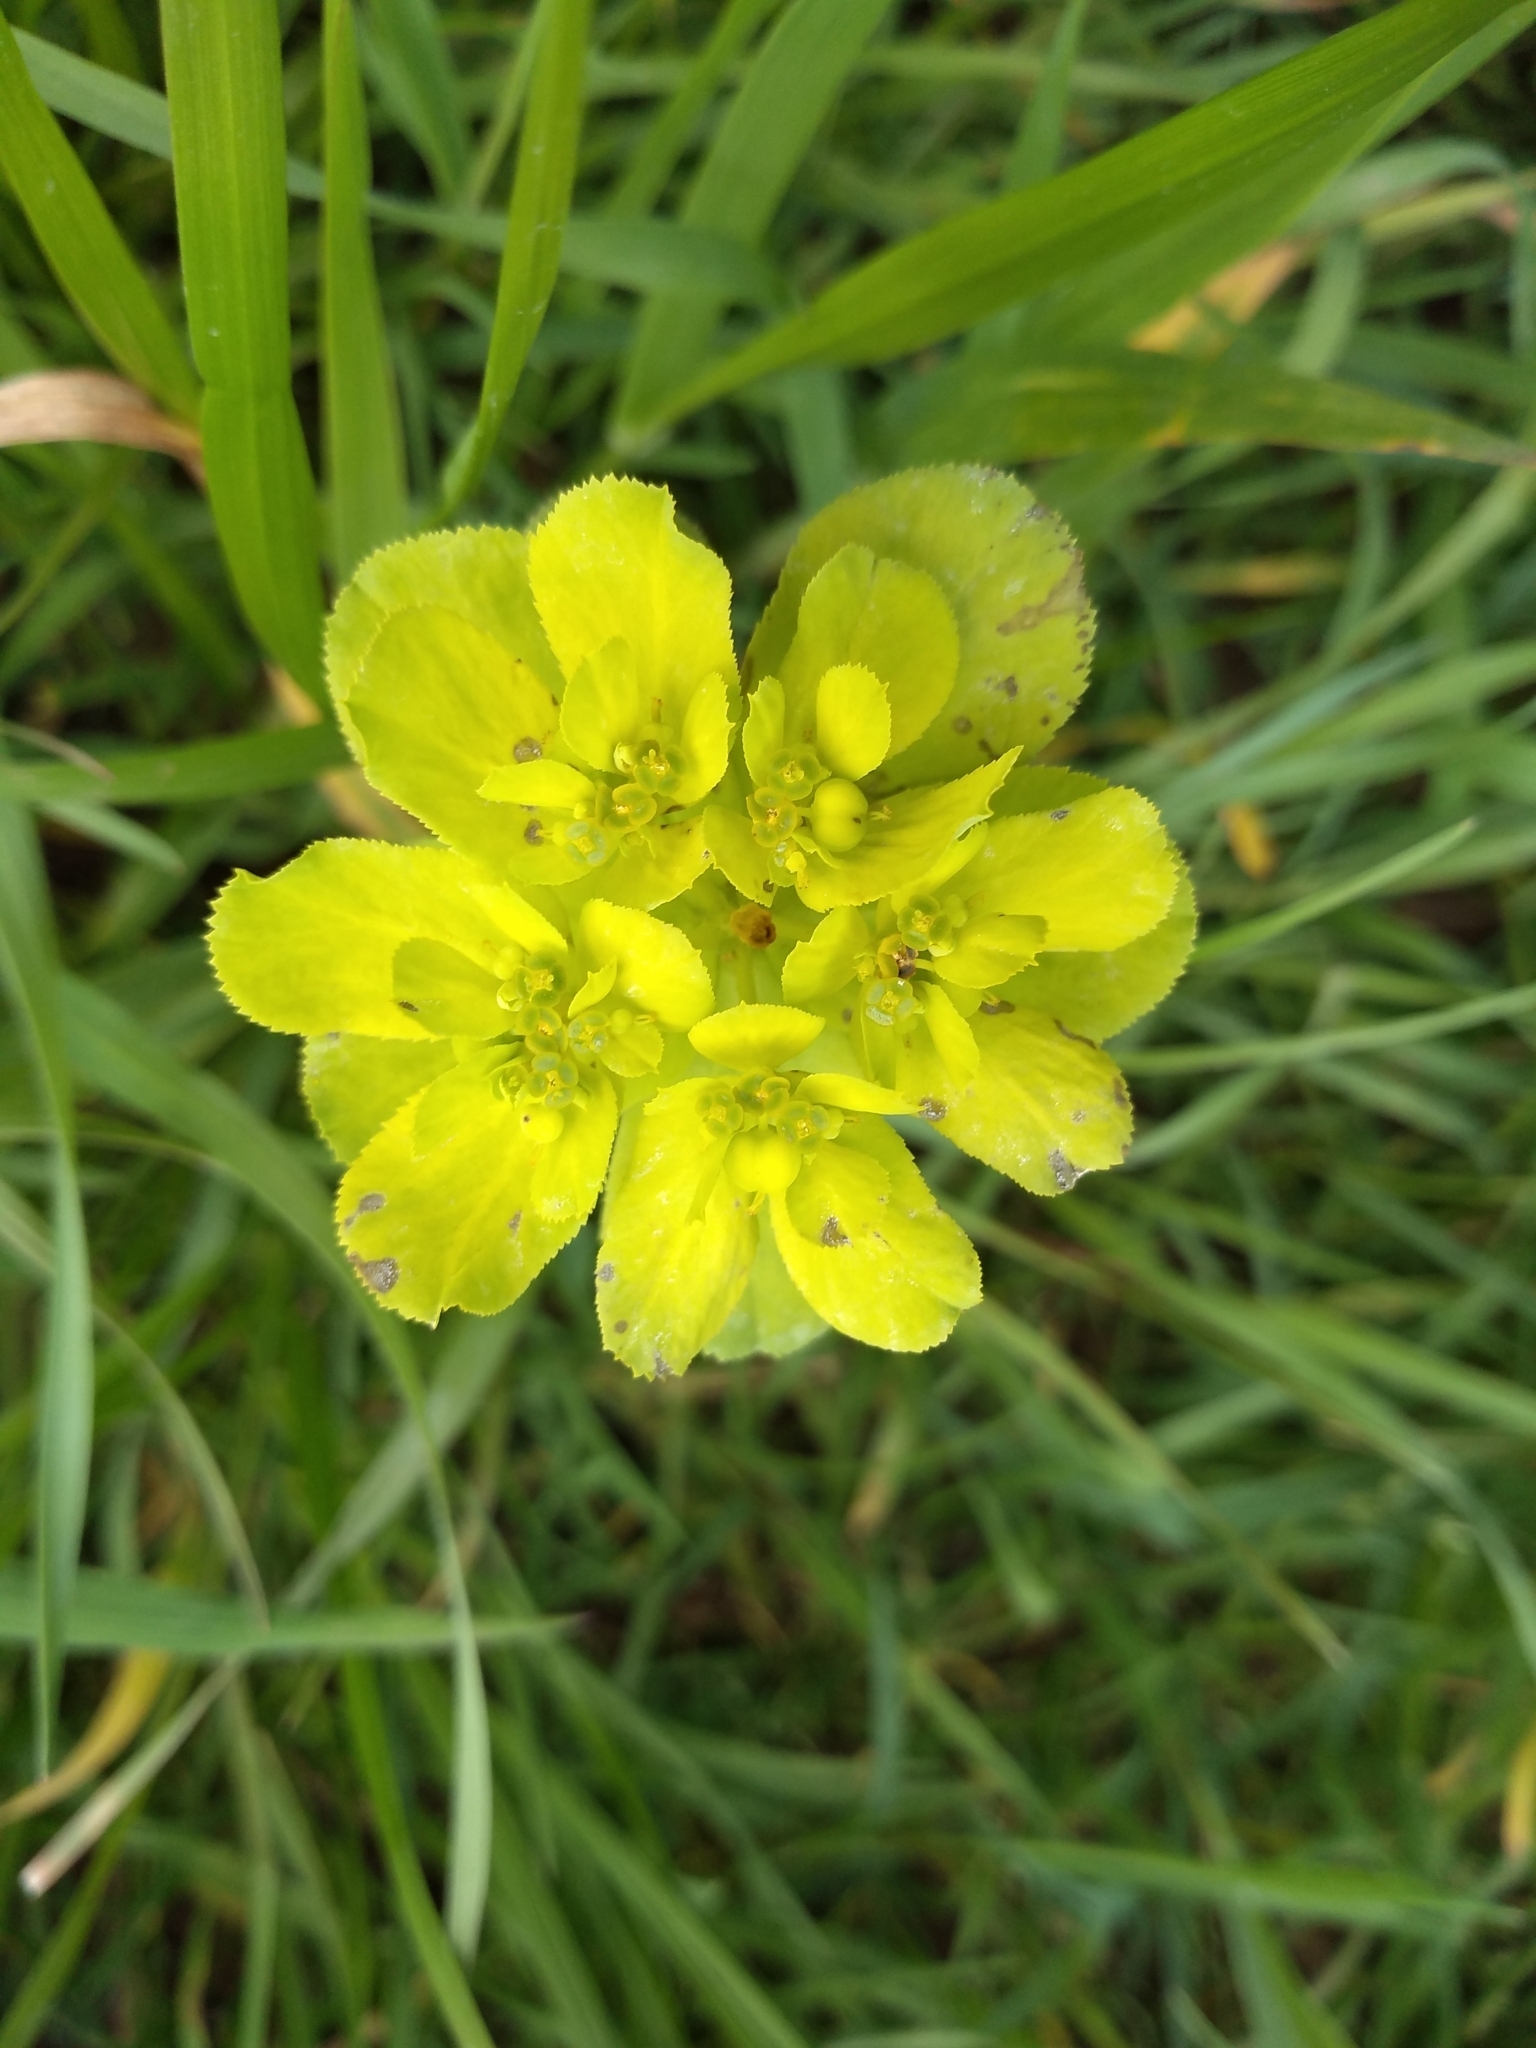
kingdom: Plantae
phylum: Tracheophyta
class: Magnoliopsida
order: Malpighiales
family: Euphorbiaceae
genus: Euphorbia
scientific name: Euphorbia helioscopia
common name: Sun spurge
